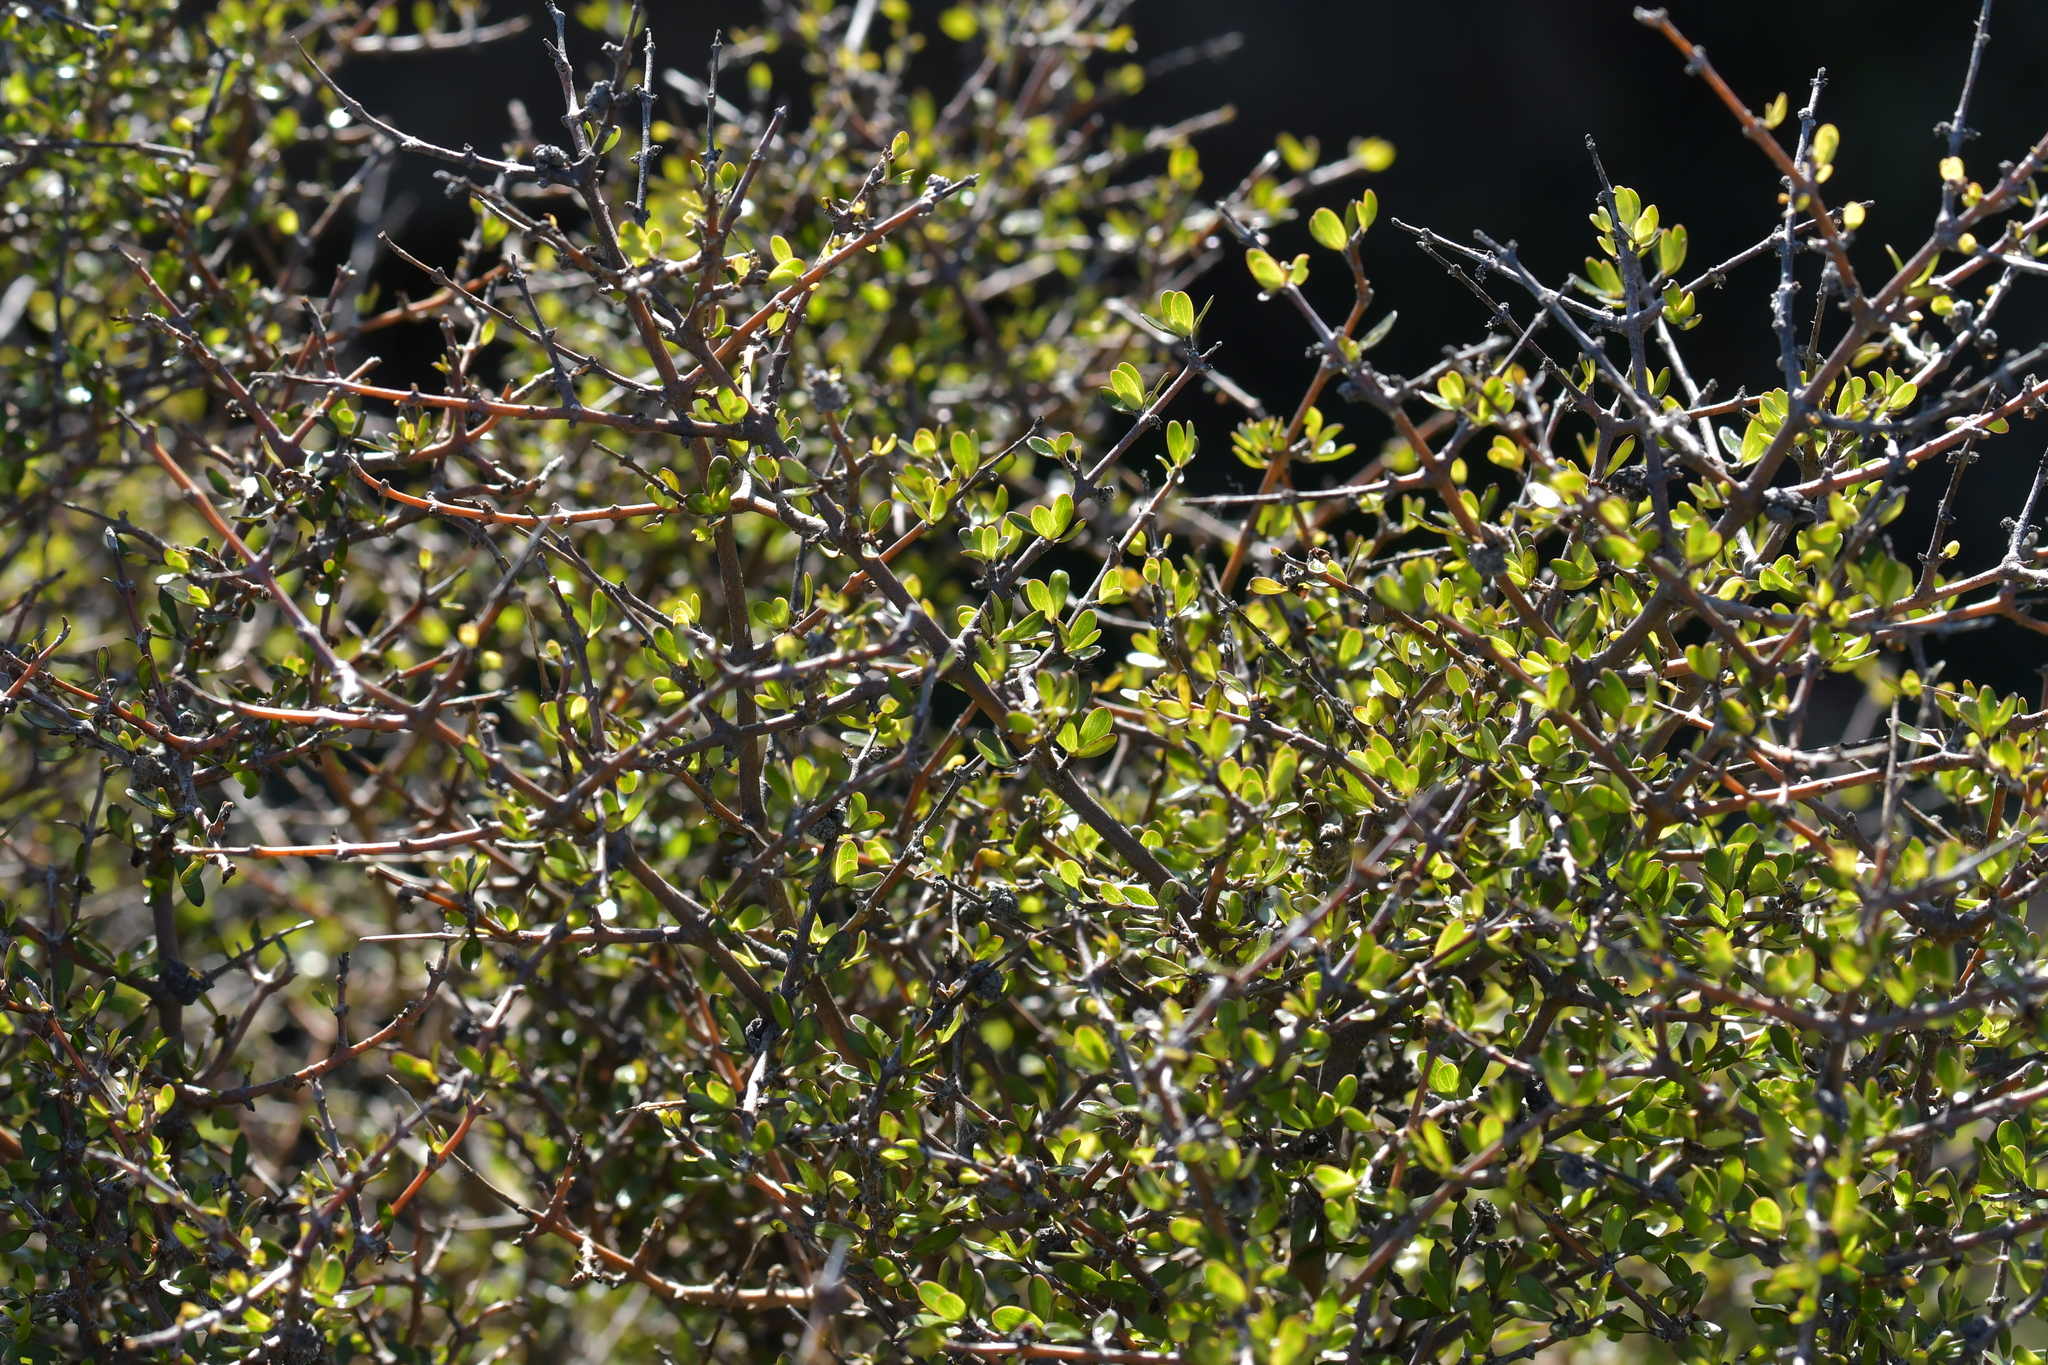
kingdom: Plantae
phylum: Tracheophyta
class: Magnoliopsida
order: Gentianales
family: Rubiaceae
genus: Coprosma
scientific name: Coprosma propinqua
